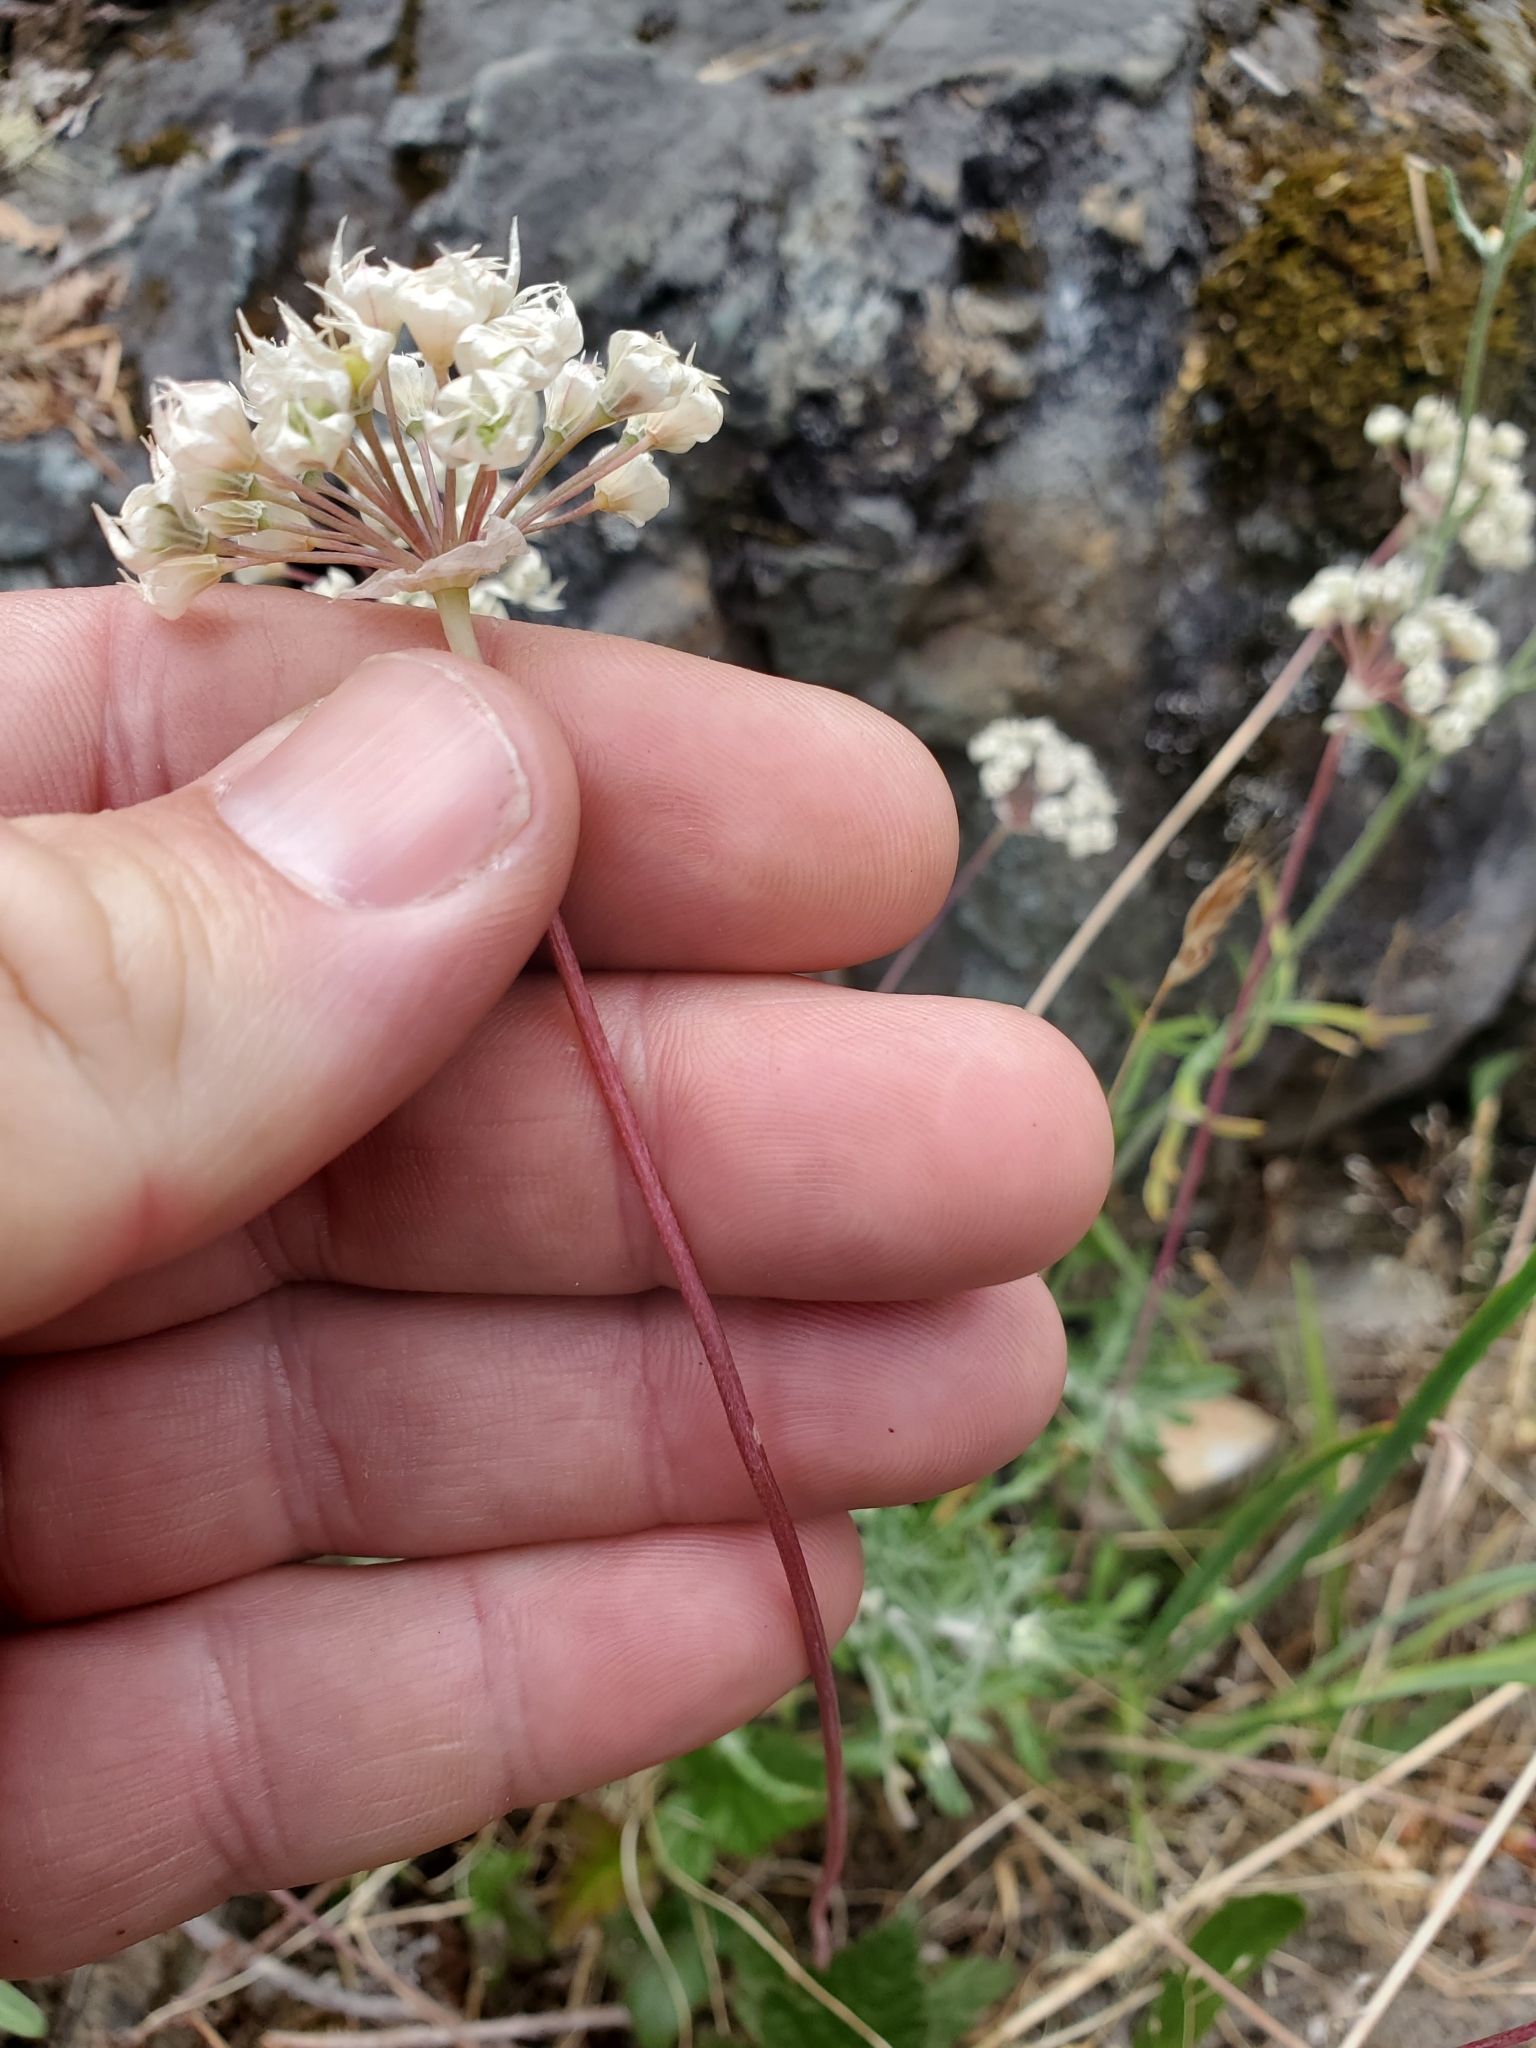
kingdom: Plantae
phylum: Tracheophyta
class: Liliopsida
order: Asparagales
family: Amaryllidaceae
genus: Allium
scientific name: Allium amplectens
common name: Narrow-leaved onion
